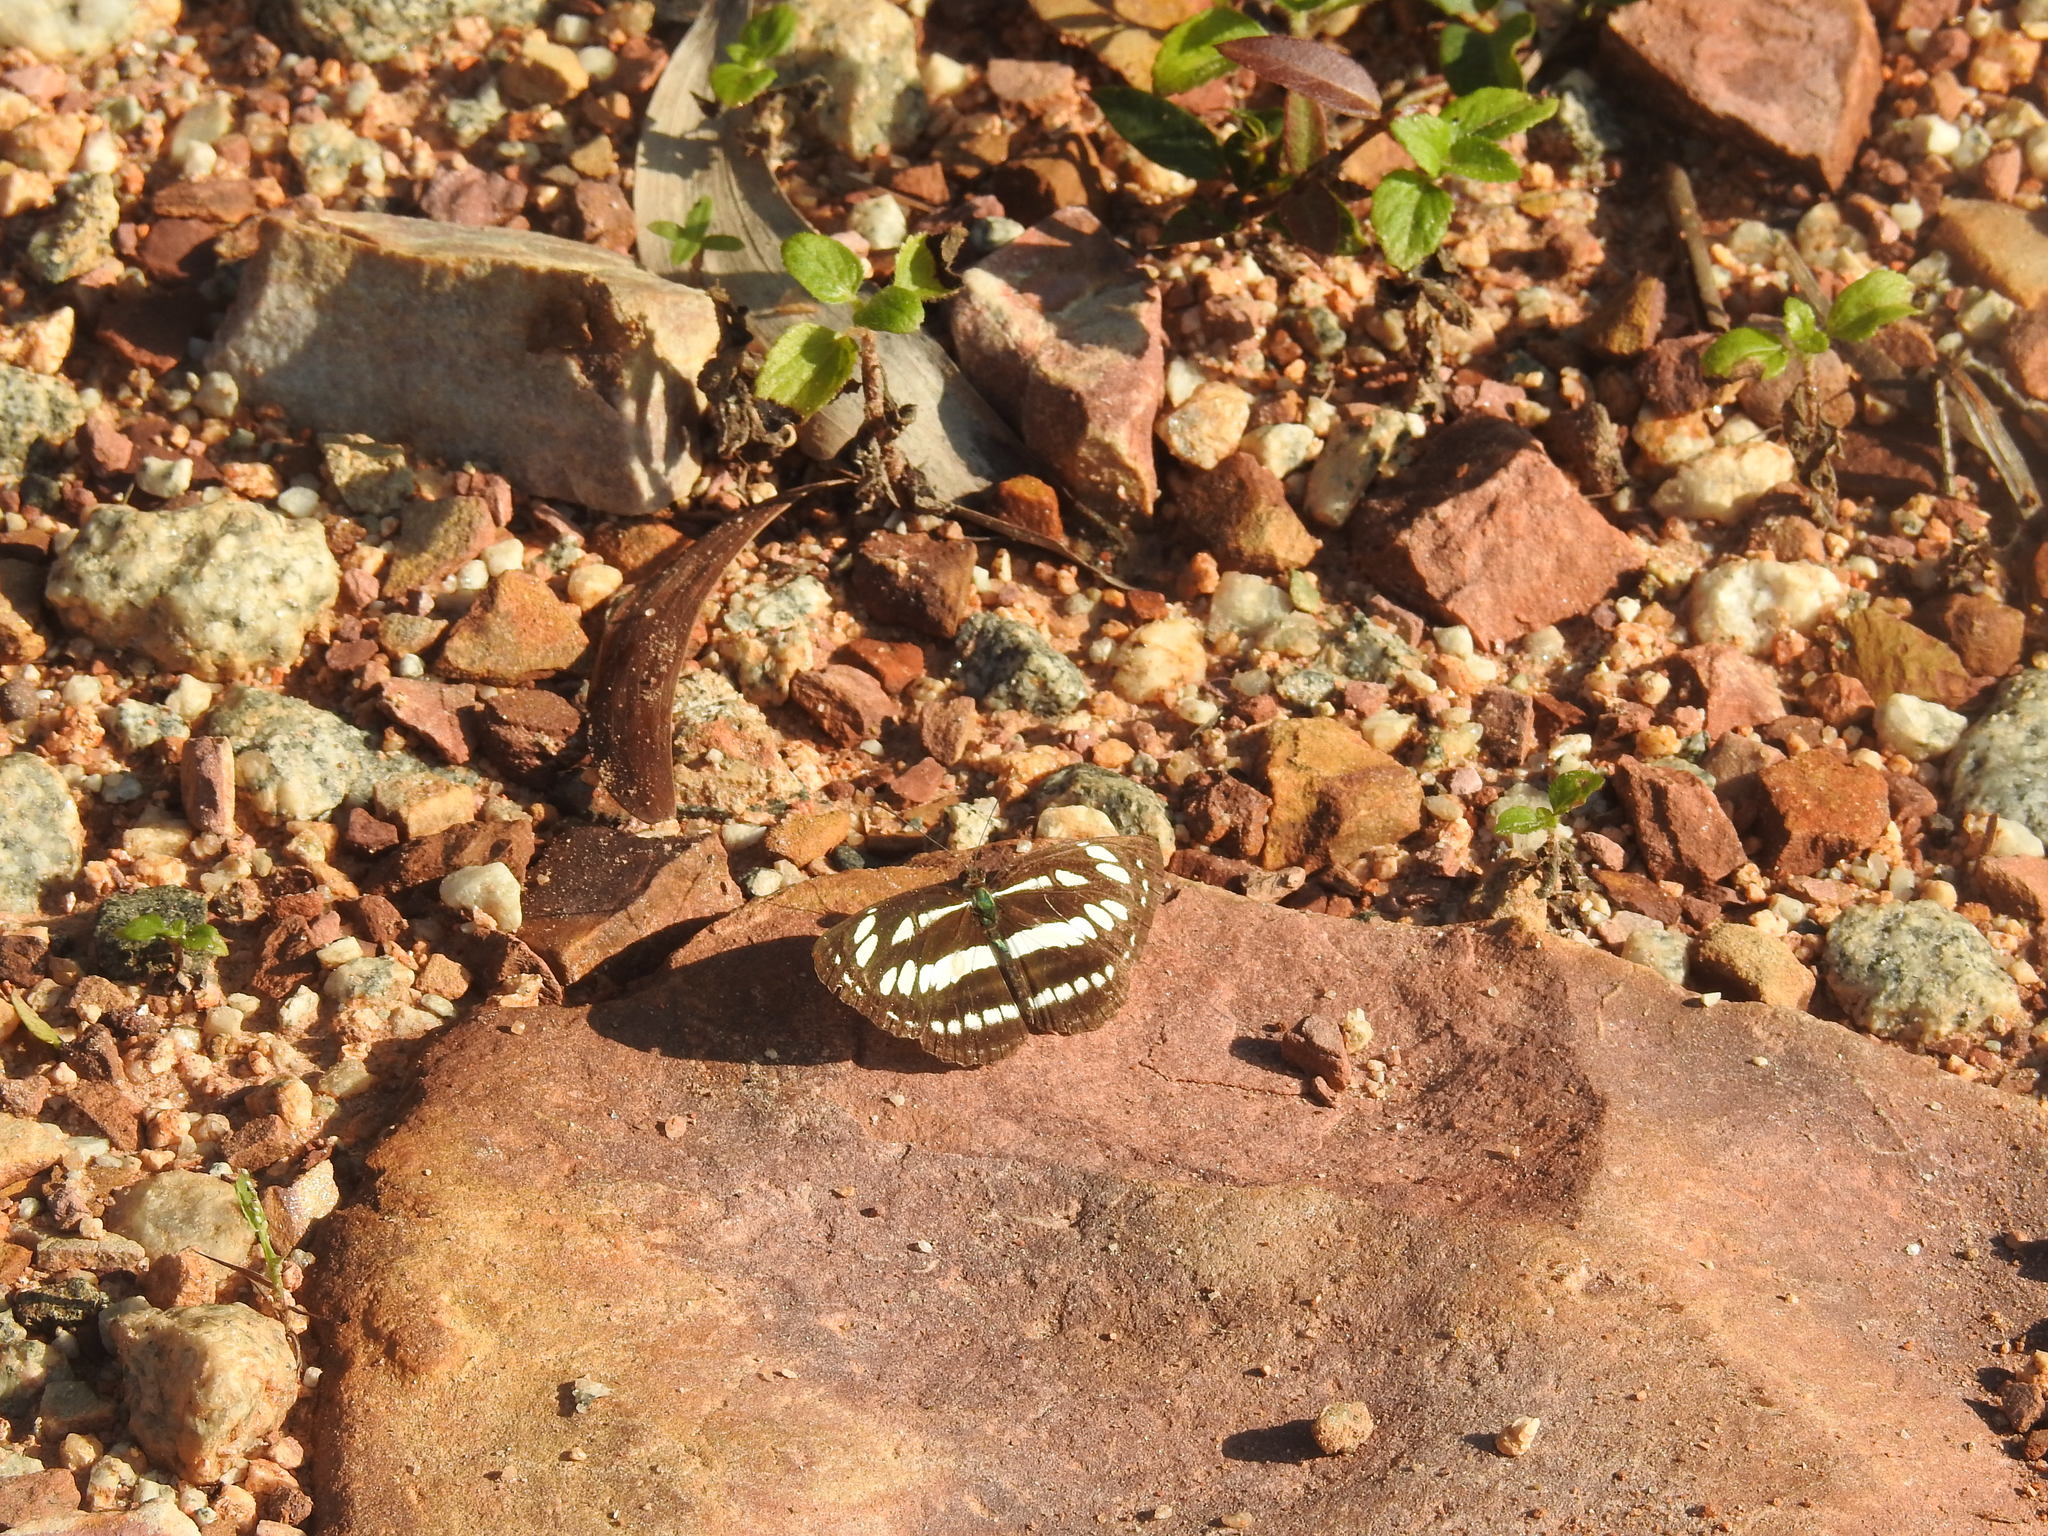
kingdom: Animalia
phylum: Arthropoda
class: Insecta
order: Lepidoptera
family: Nymphalidae
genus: Neptis
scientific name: Neptis hylas
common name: Common sailer
